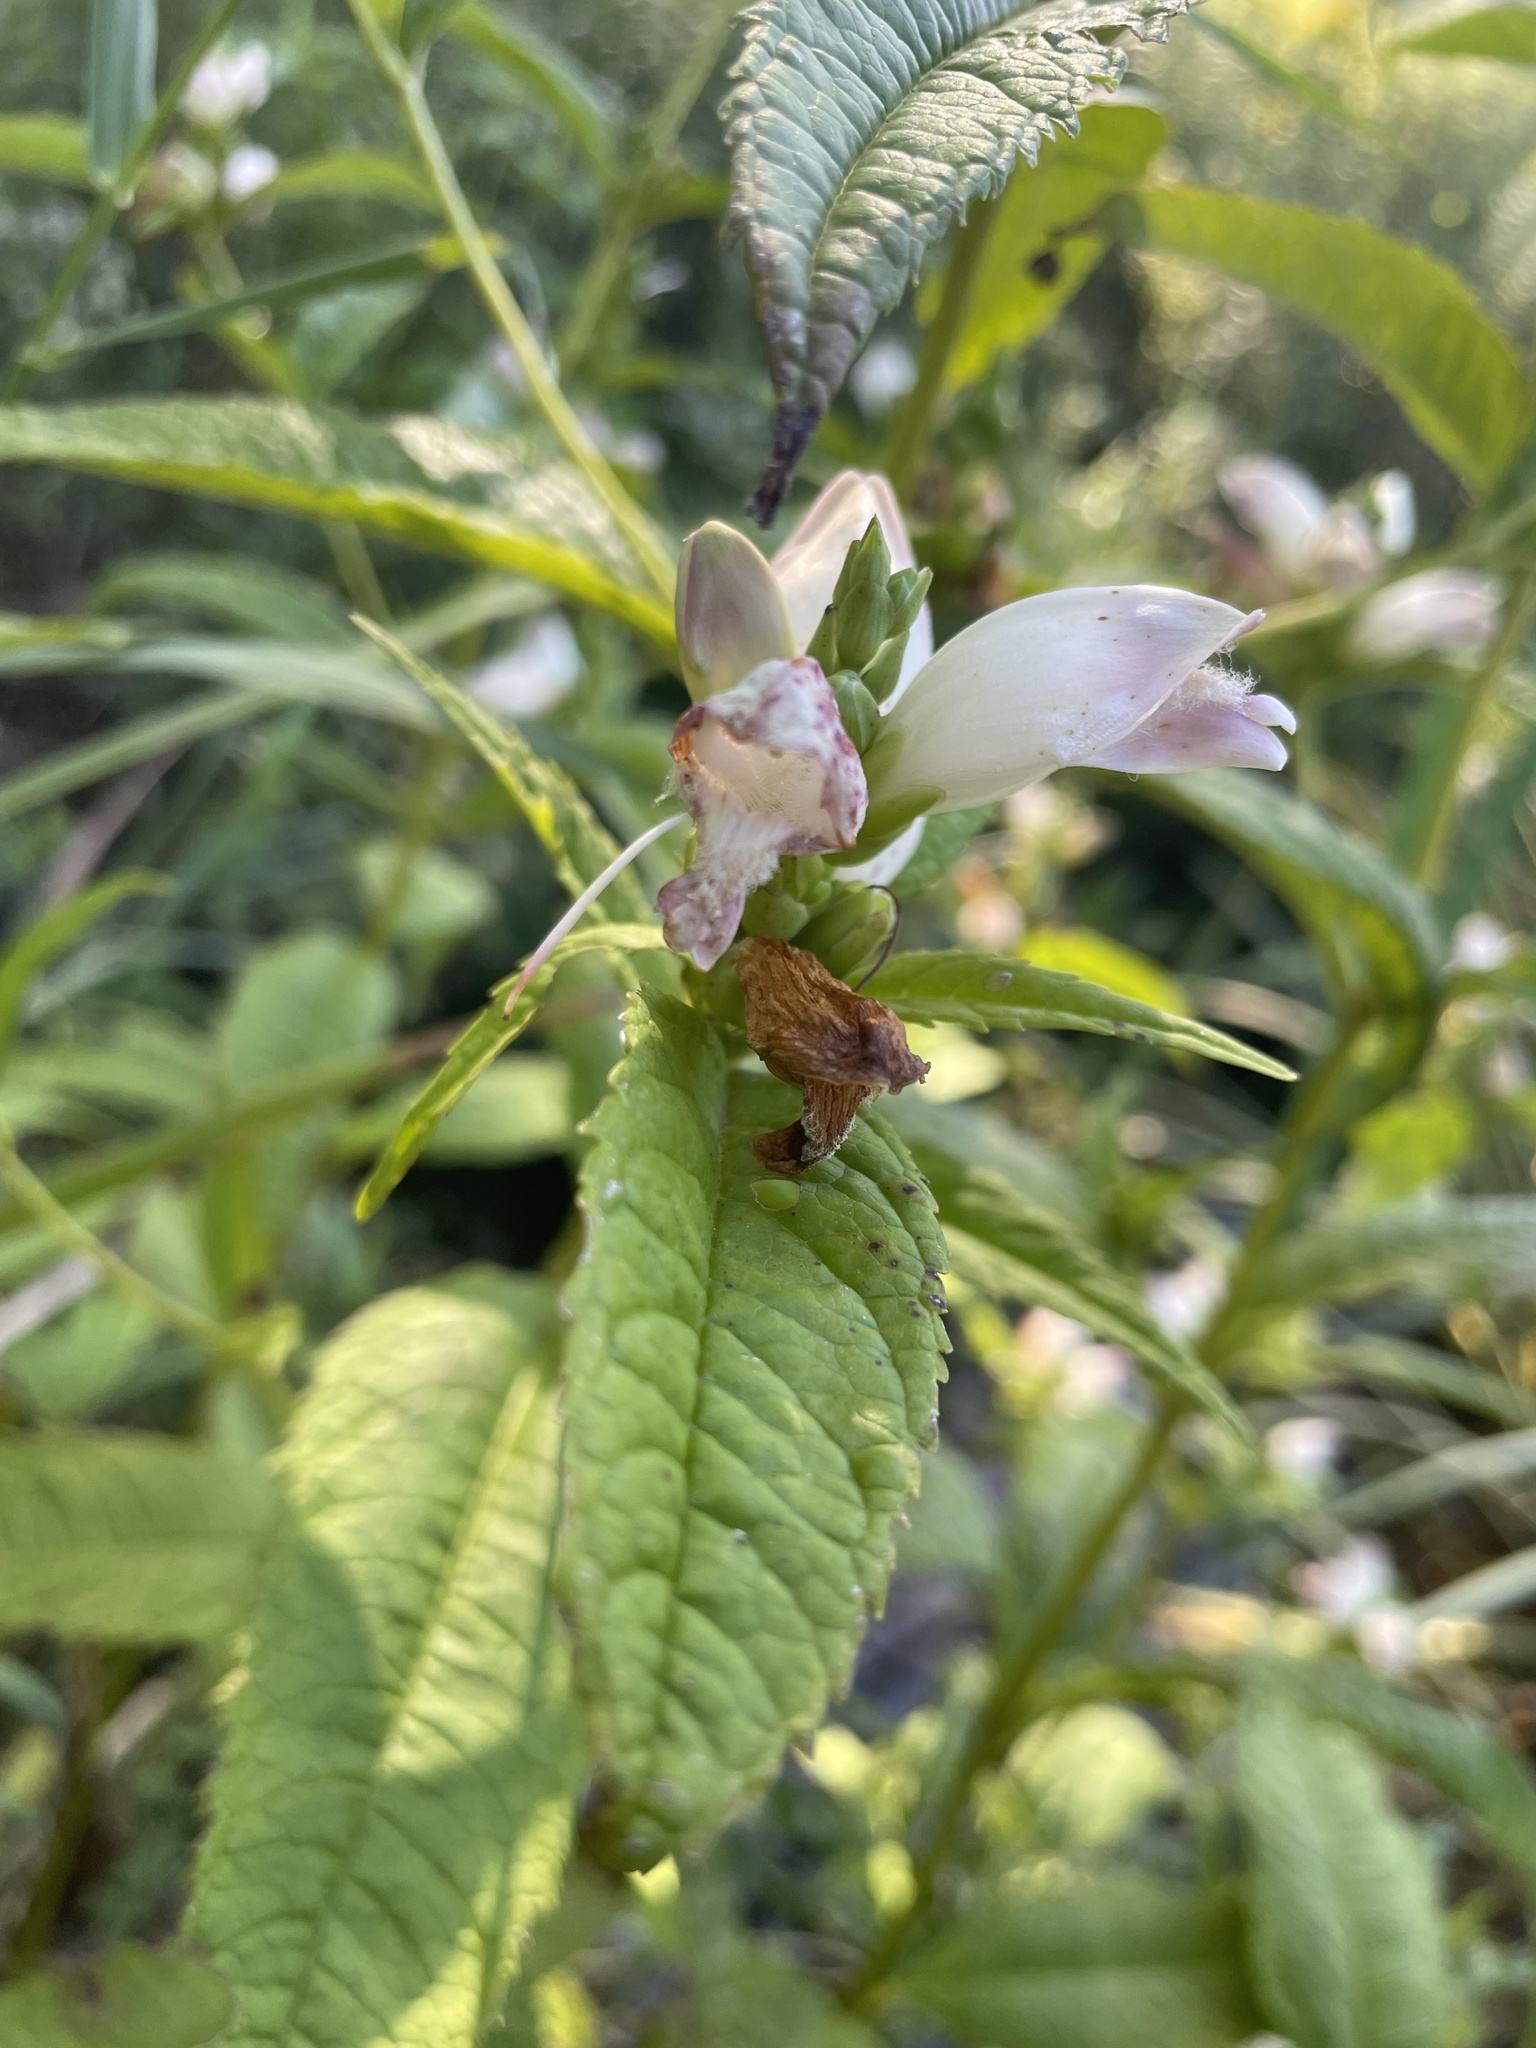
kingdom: Plantae
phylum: Tracheophyta
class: Magnoliopsida
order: Lamiales
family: Plantaginaceae
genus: Chelone
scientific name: Chelone glabra
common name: Snakehead
